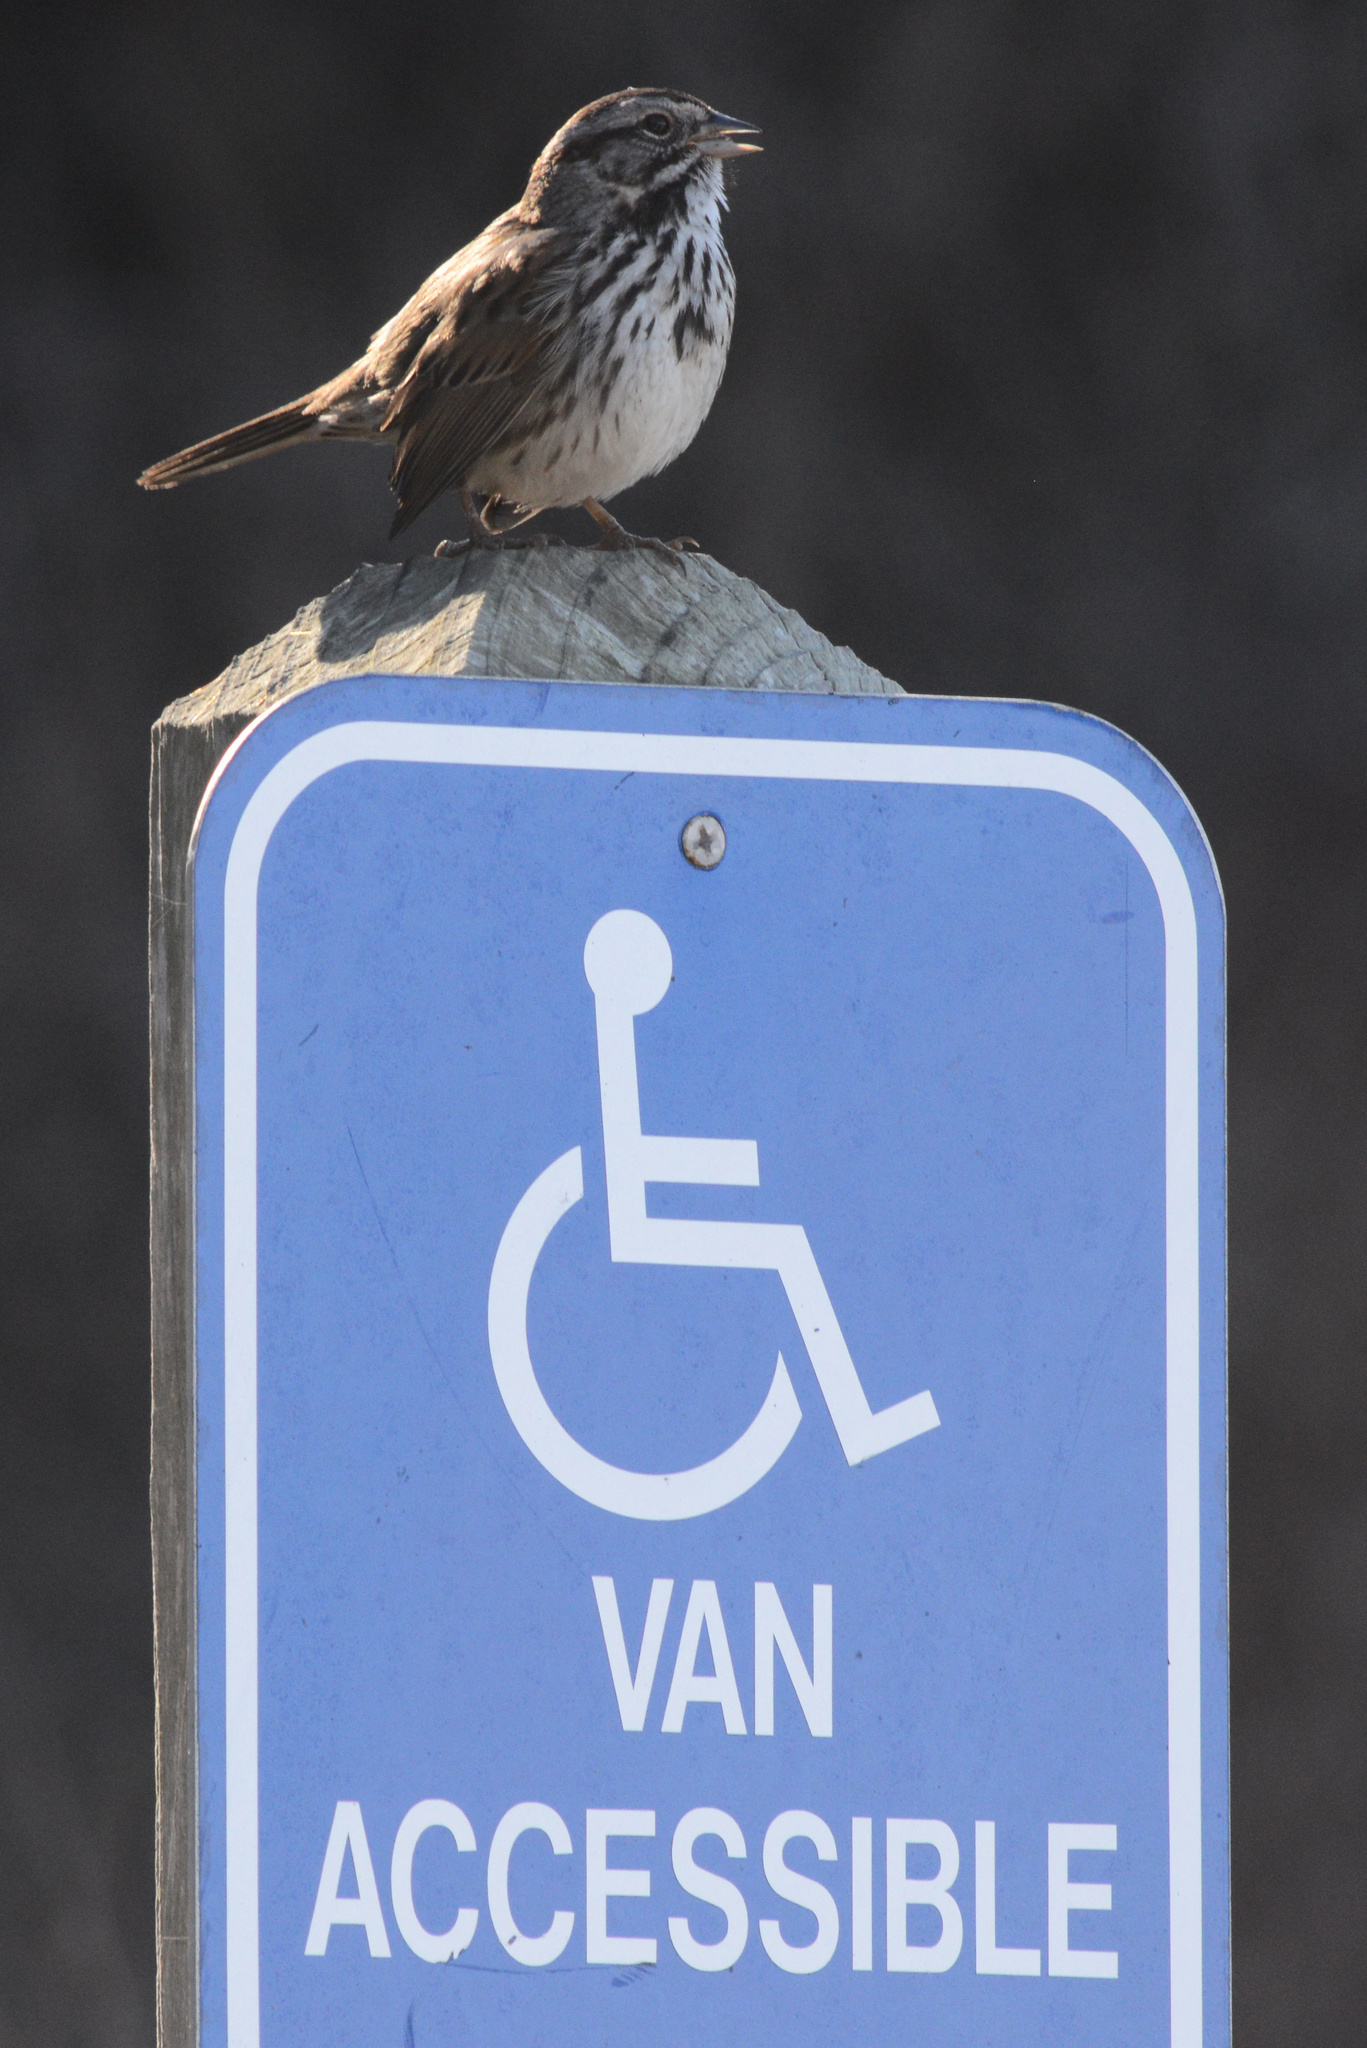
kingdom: Animalia
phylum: Chordata
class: Aves
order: Passeriformes
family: Passerellidae
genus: Melospiza
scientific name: Melospiza melodia
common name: Song sparrow
